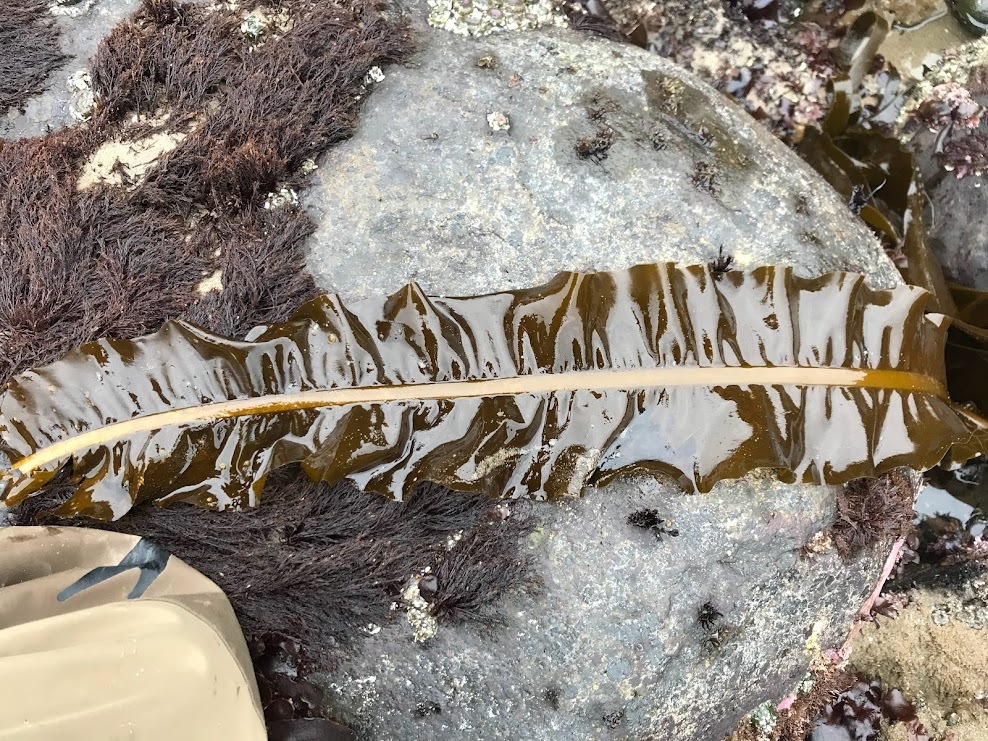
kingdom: Chromista
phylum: Ochrophyta
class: Phaeophyceae
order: Laminariales
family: Alariaceae
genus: Alaria
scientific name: Alaria marginata
